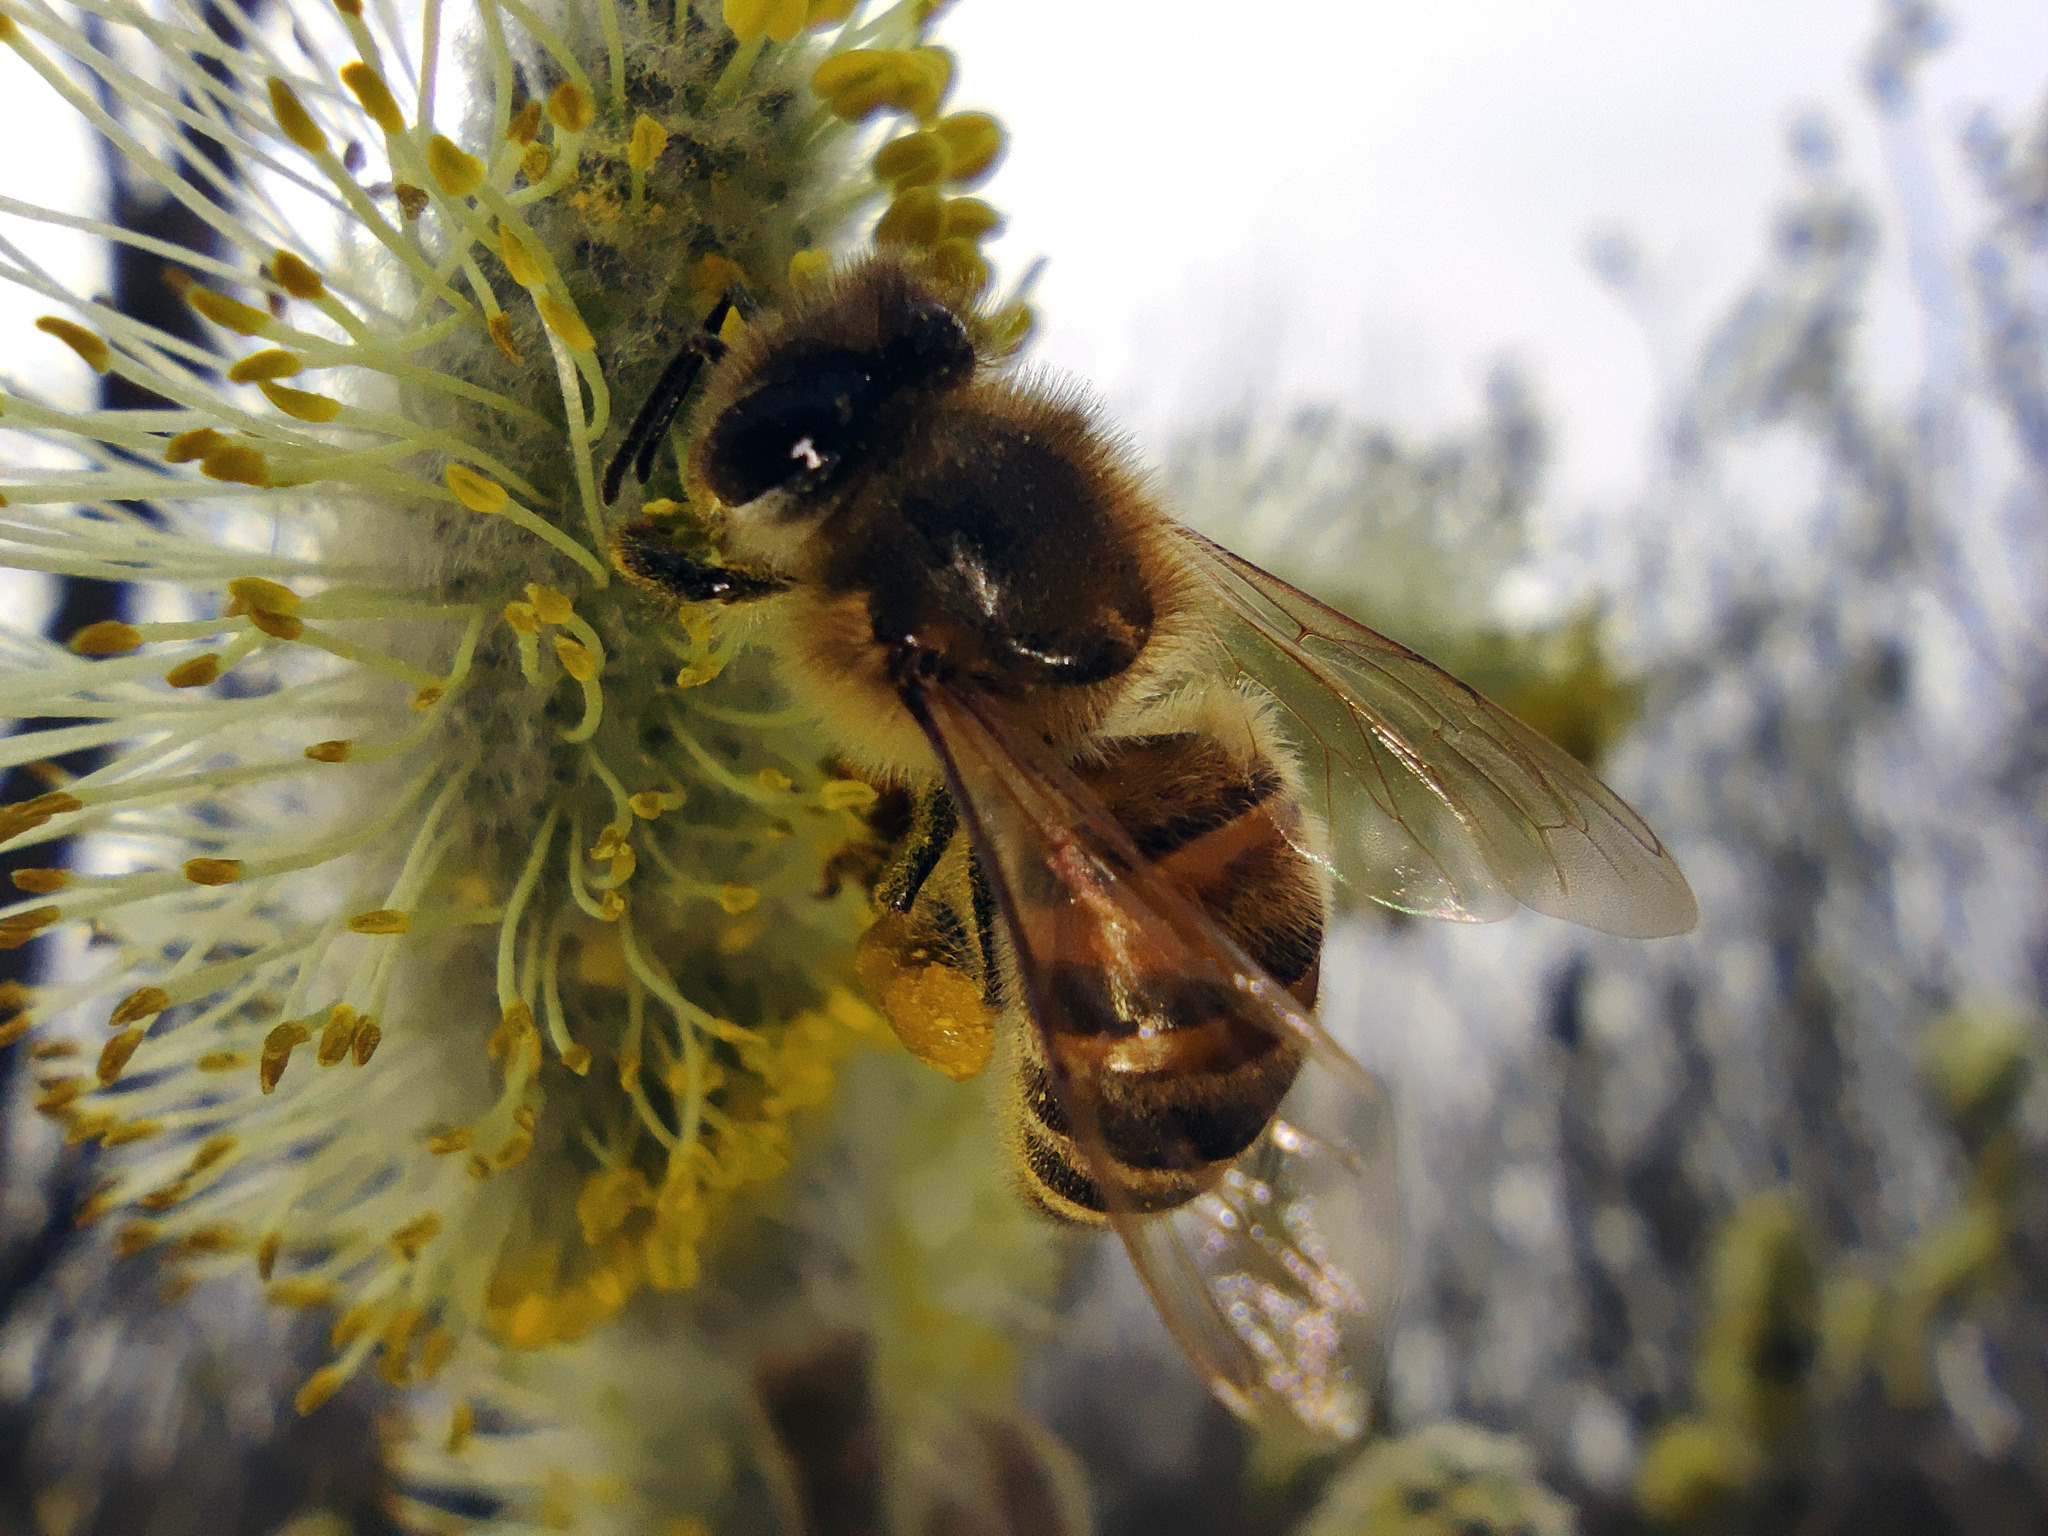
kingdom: Animalia
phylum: Arthropoda
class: Insecta
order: Hymenoptera
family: Apidae
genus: Apis
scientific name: Apis mellifera
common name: Honey bee
